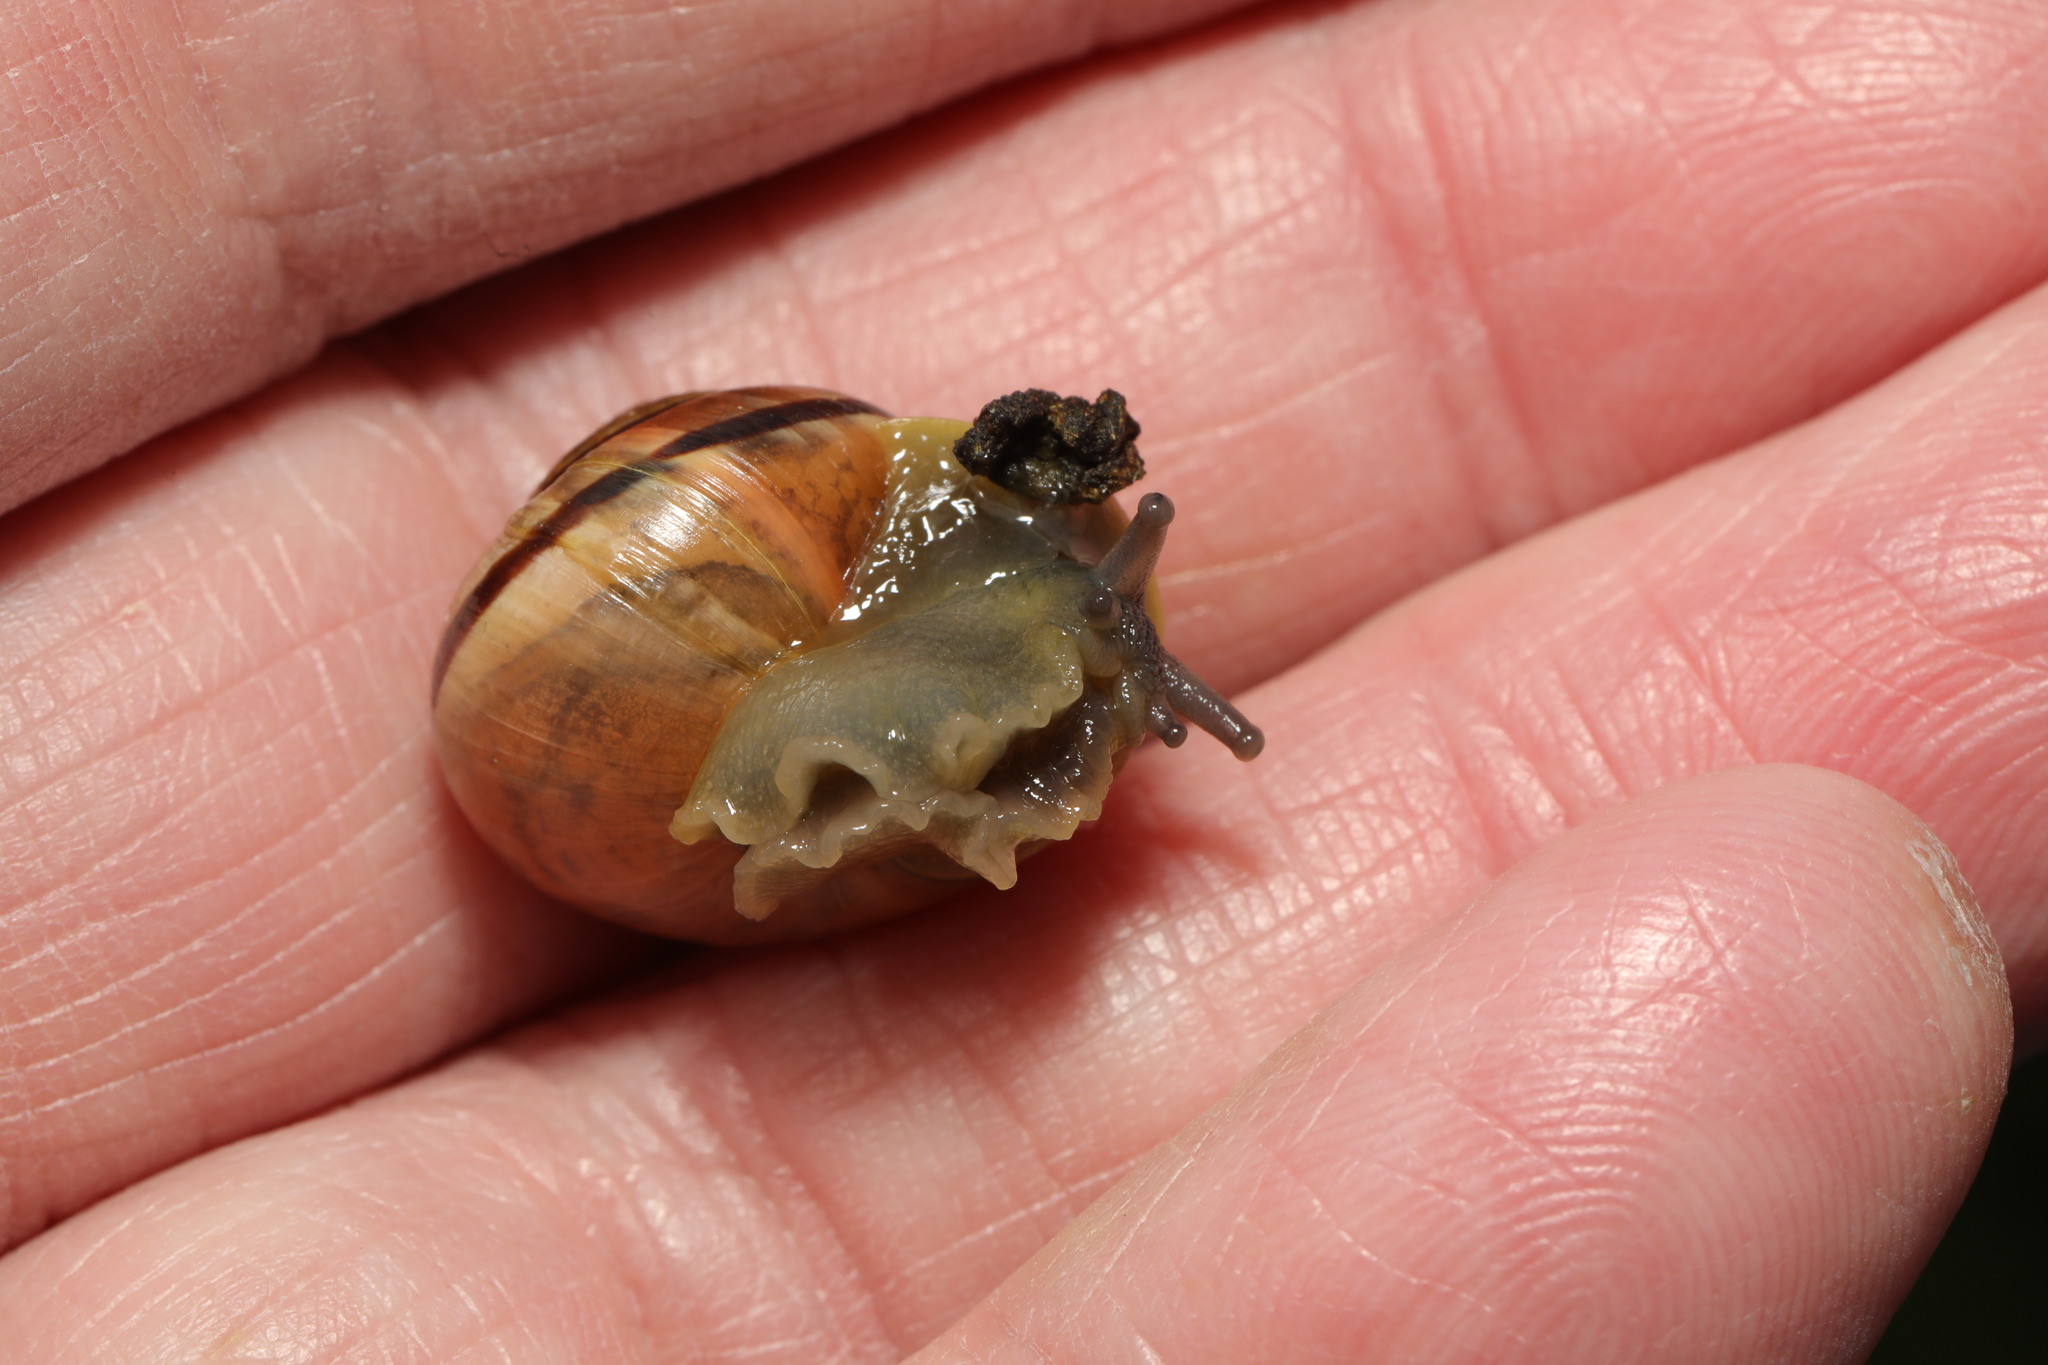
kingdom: Animalia
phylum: Mollusca
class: Gastropoda
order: Stylommatophora
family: Helicidae
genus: Cepaea
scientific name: Cepaea
